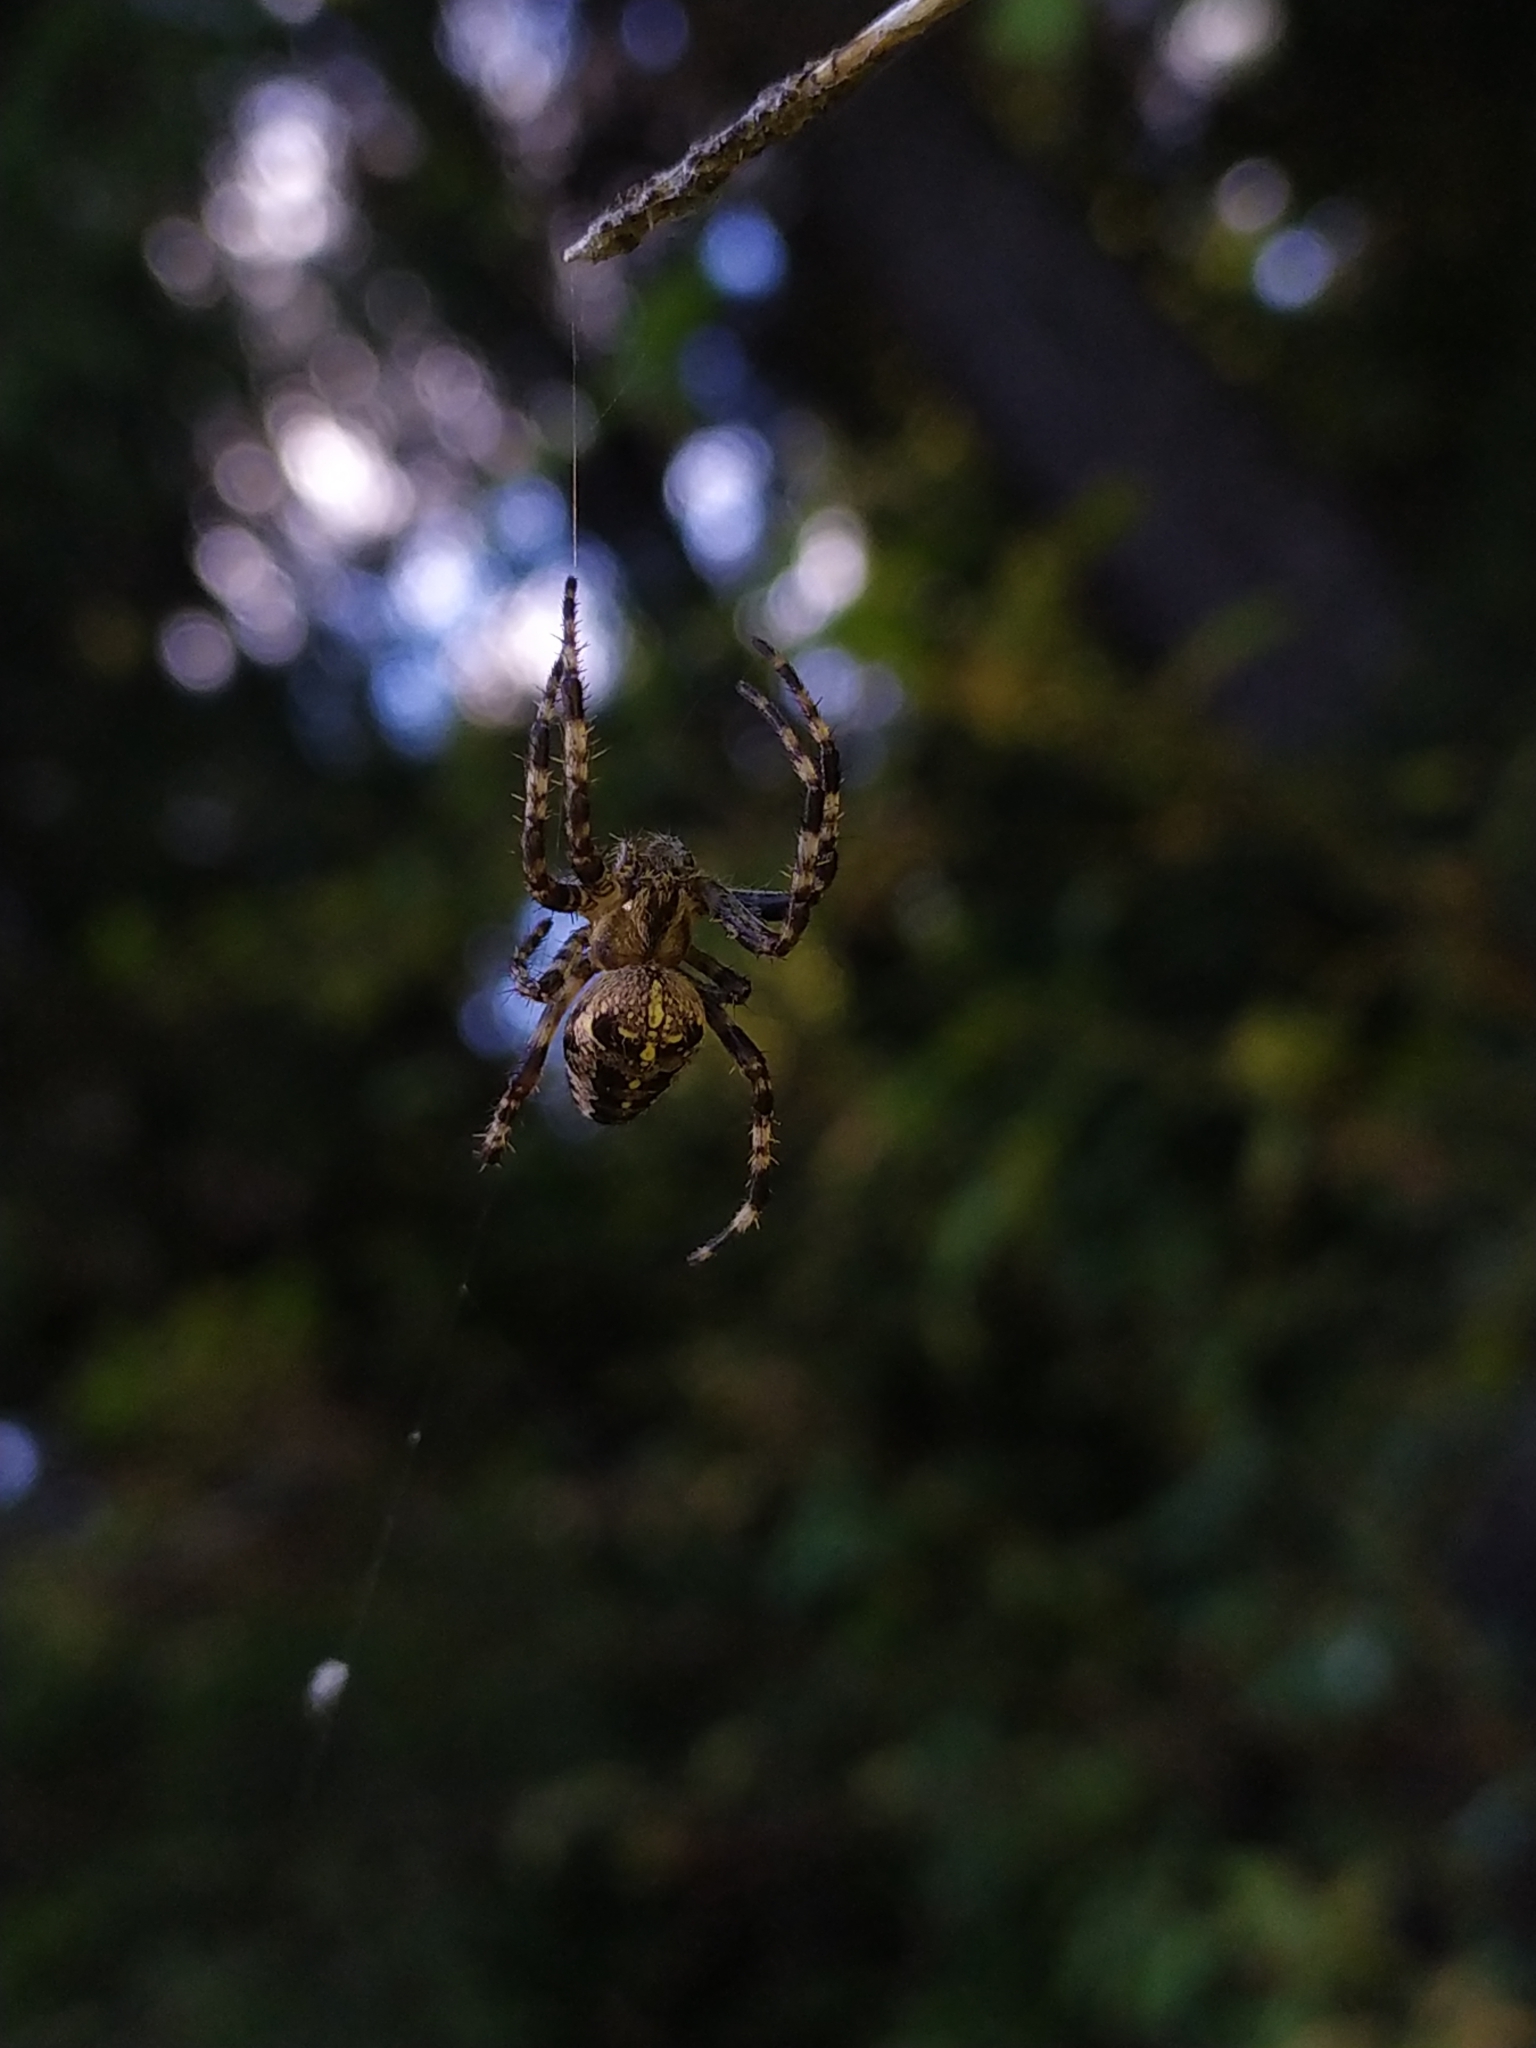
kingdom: Animalia
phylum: Arthropoda
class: Arachnida
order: Araneae
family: Araneidae
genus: Araneus
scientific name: Araneus diadematus
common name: Cross orbweaver
